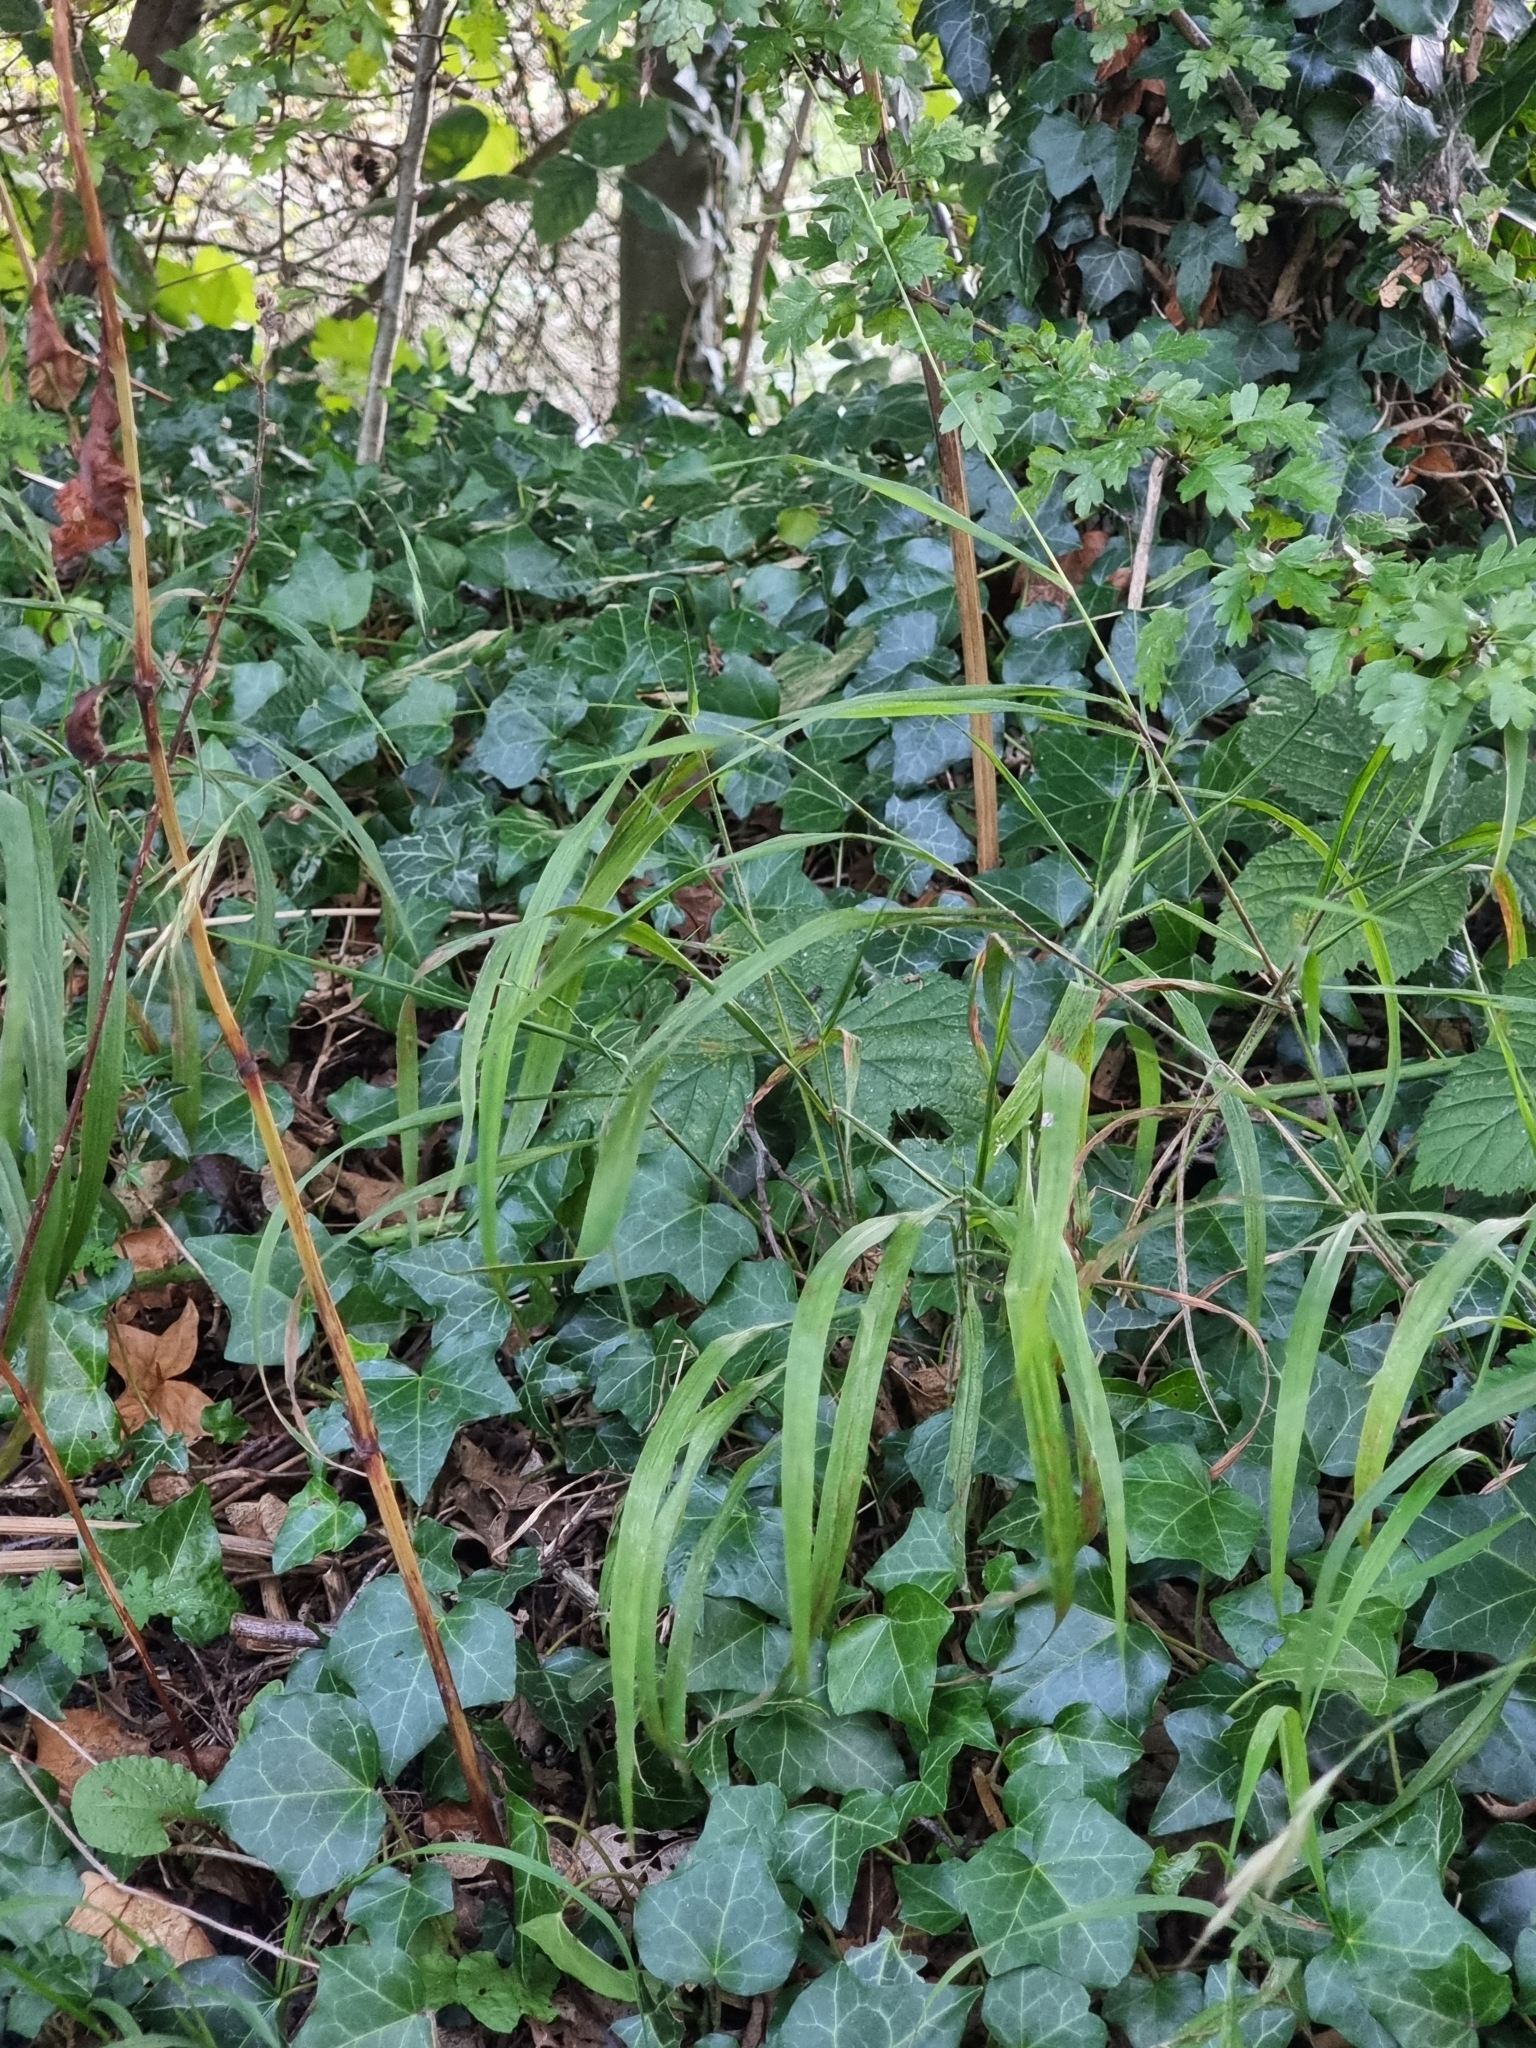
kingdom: Plantae
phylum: Tracheophyta
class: Liliopsida
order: Poales
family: Poaceae
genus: Brachypodium
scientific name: Brachypodium sylvaticum
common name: False-brome
